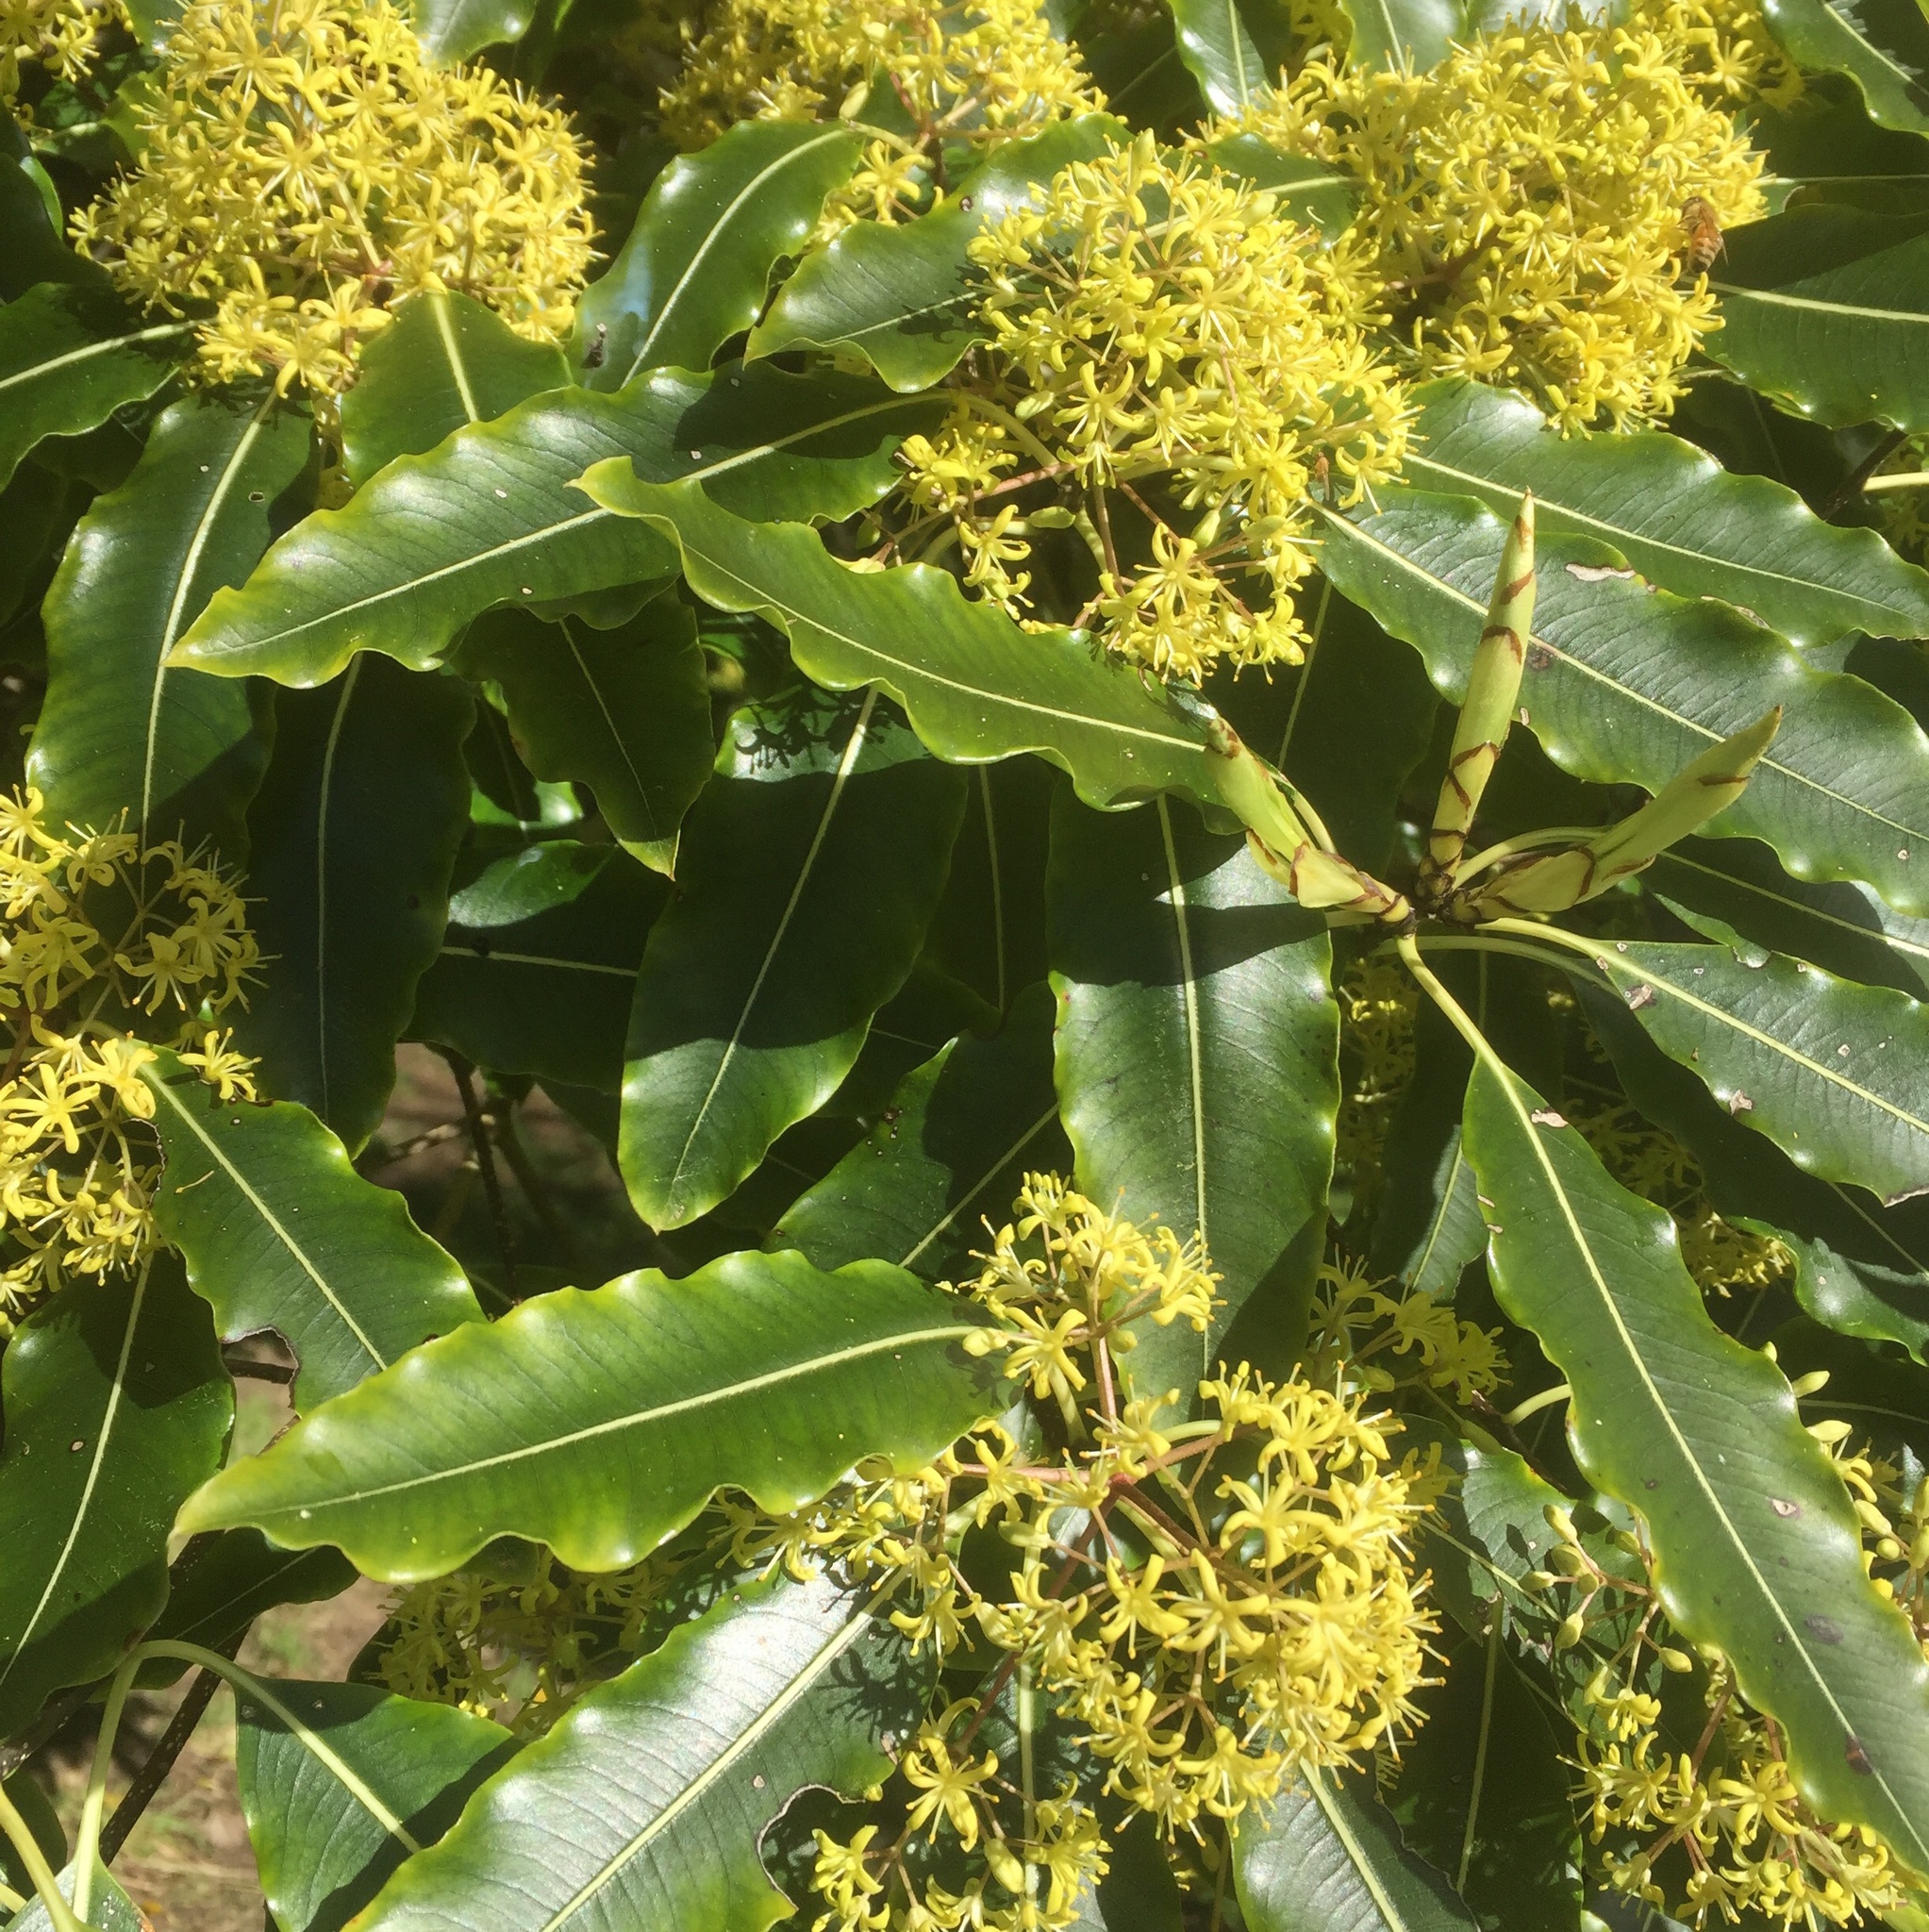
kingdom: Plantae
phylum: Tracheophyta
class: Magnoliopsida
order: Apiales
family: Pittosporaceae
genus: Pittosporum
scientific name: Pittosporum eugenioides
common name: Lemonwood
